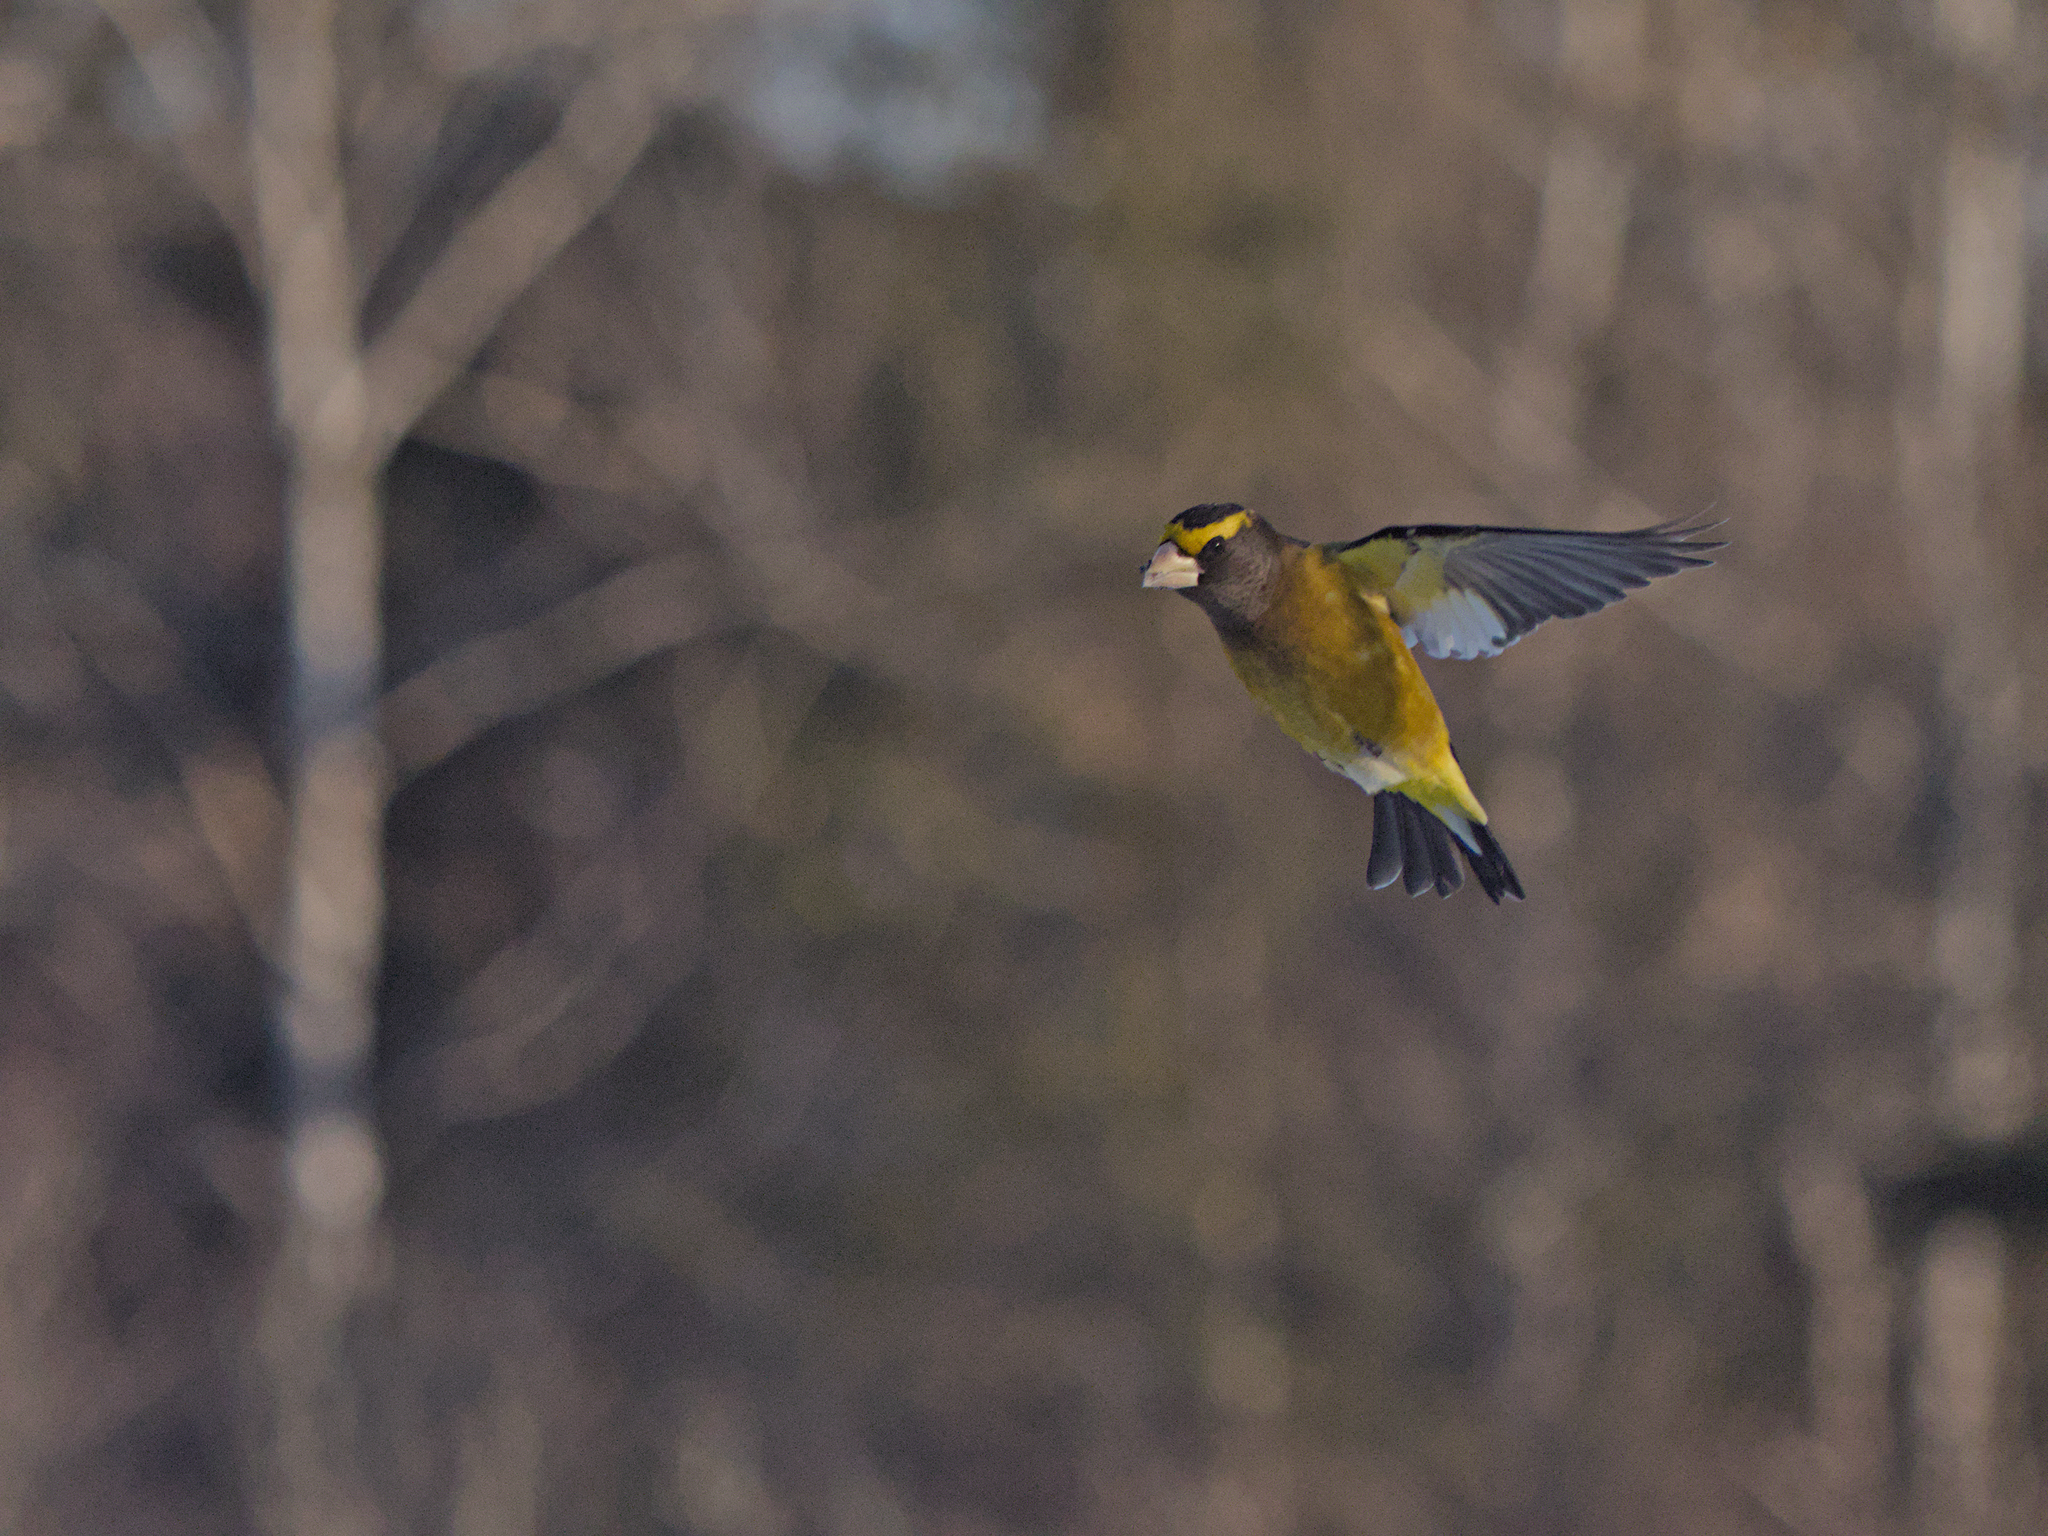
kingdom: Animalia
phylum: Chordata
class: Aves
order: Passeriformes
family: Fringillidae
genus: Hesperiphona
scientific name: Hesperiphona vespertina
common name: Evening grosbeak
